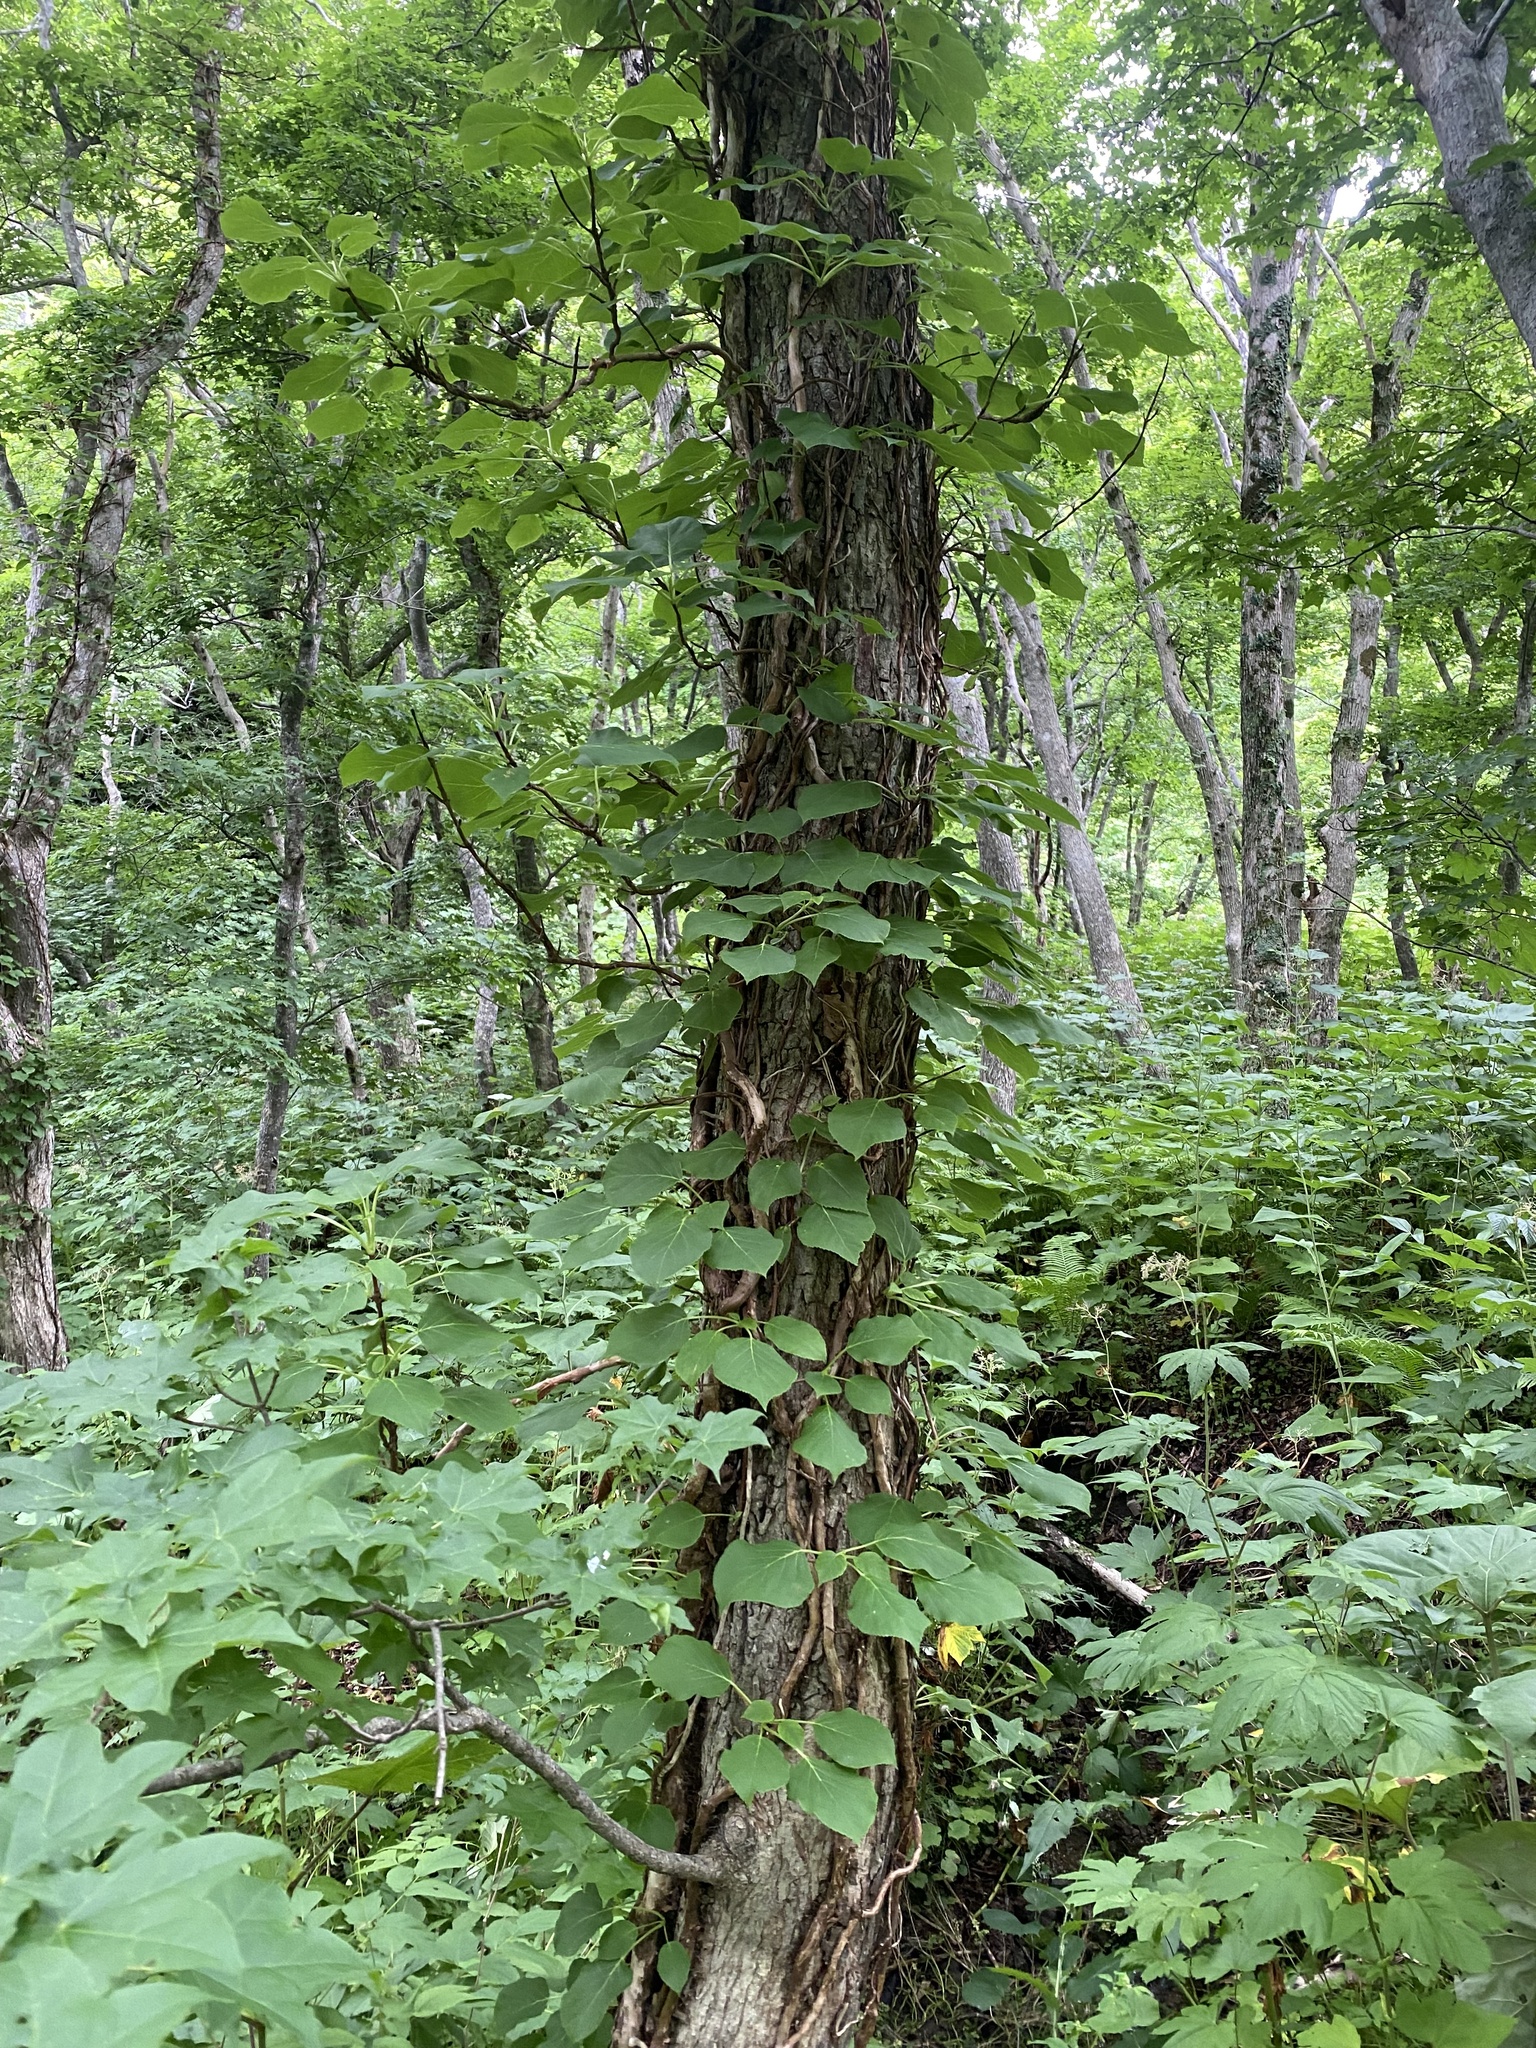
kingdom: Plantae
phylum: Tracheophyta
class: Magnoliopsida
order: Cornales
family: Hydrangeaceae
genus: Hydrangea
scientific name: Hydrangea petiolaris
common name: Japanese climbing hydrangea
